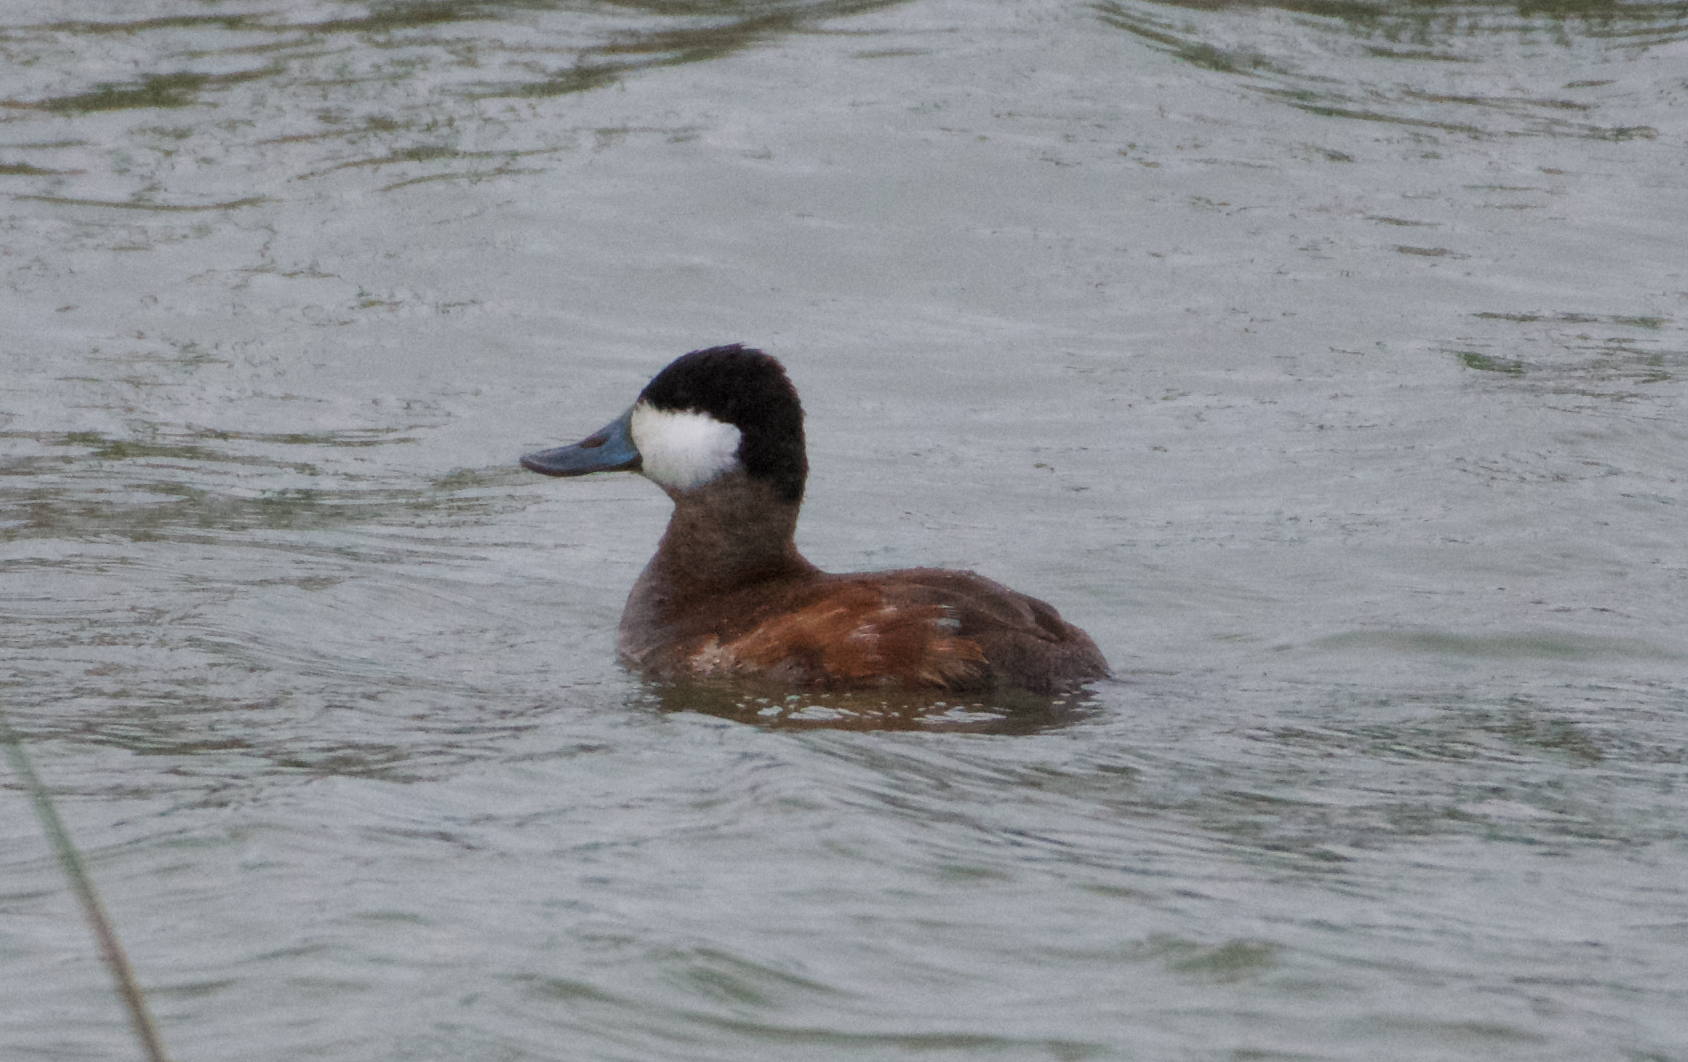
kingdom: Animalia
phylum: Chordata
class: Aves
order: Anseriformes
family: Anatidae
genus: Oxyura
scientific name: Oxyura jamaicensis
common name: Ruddy duck
